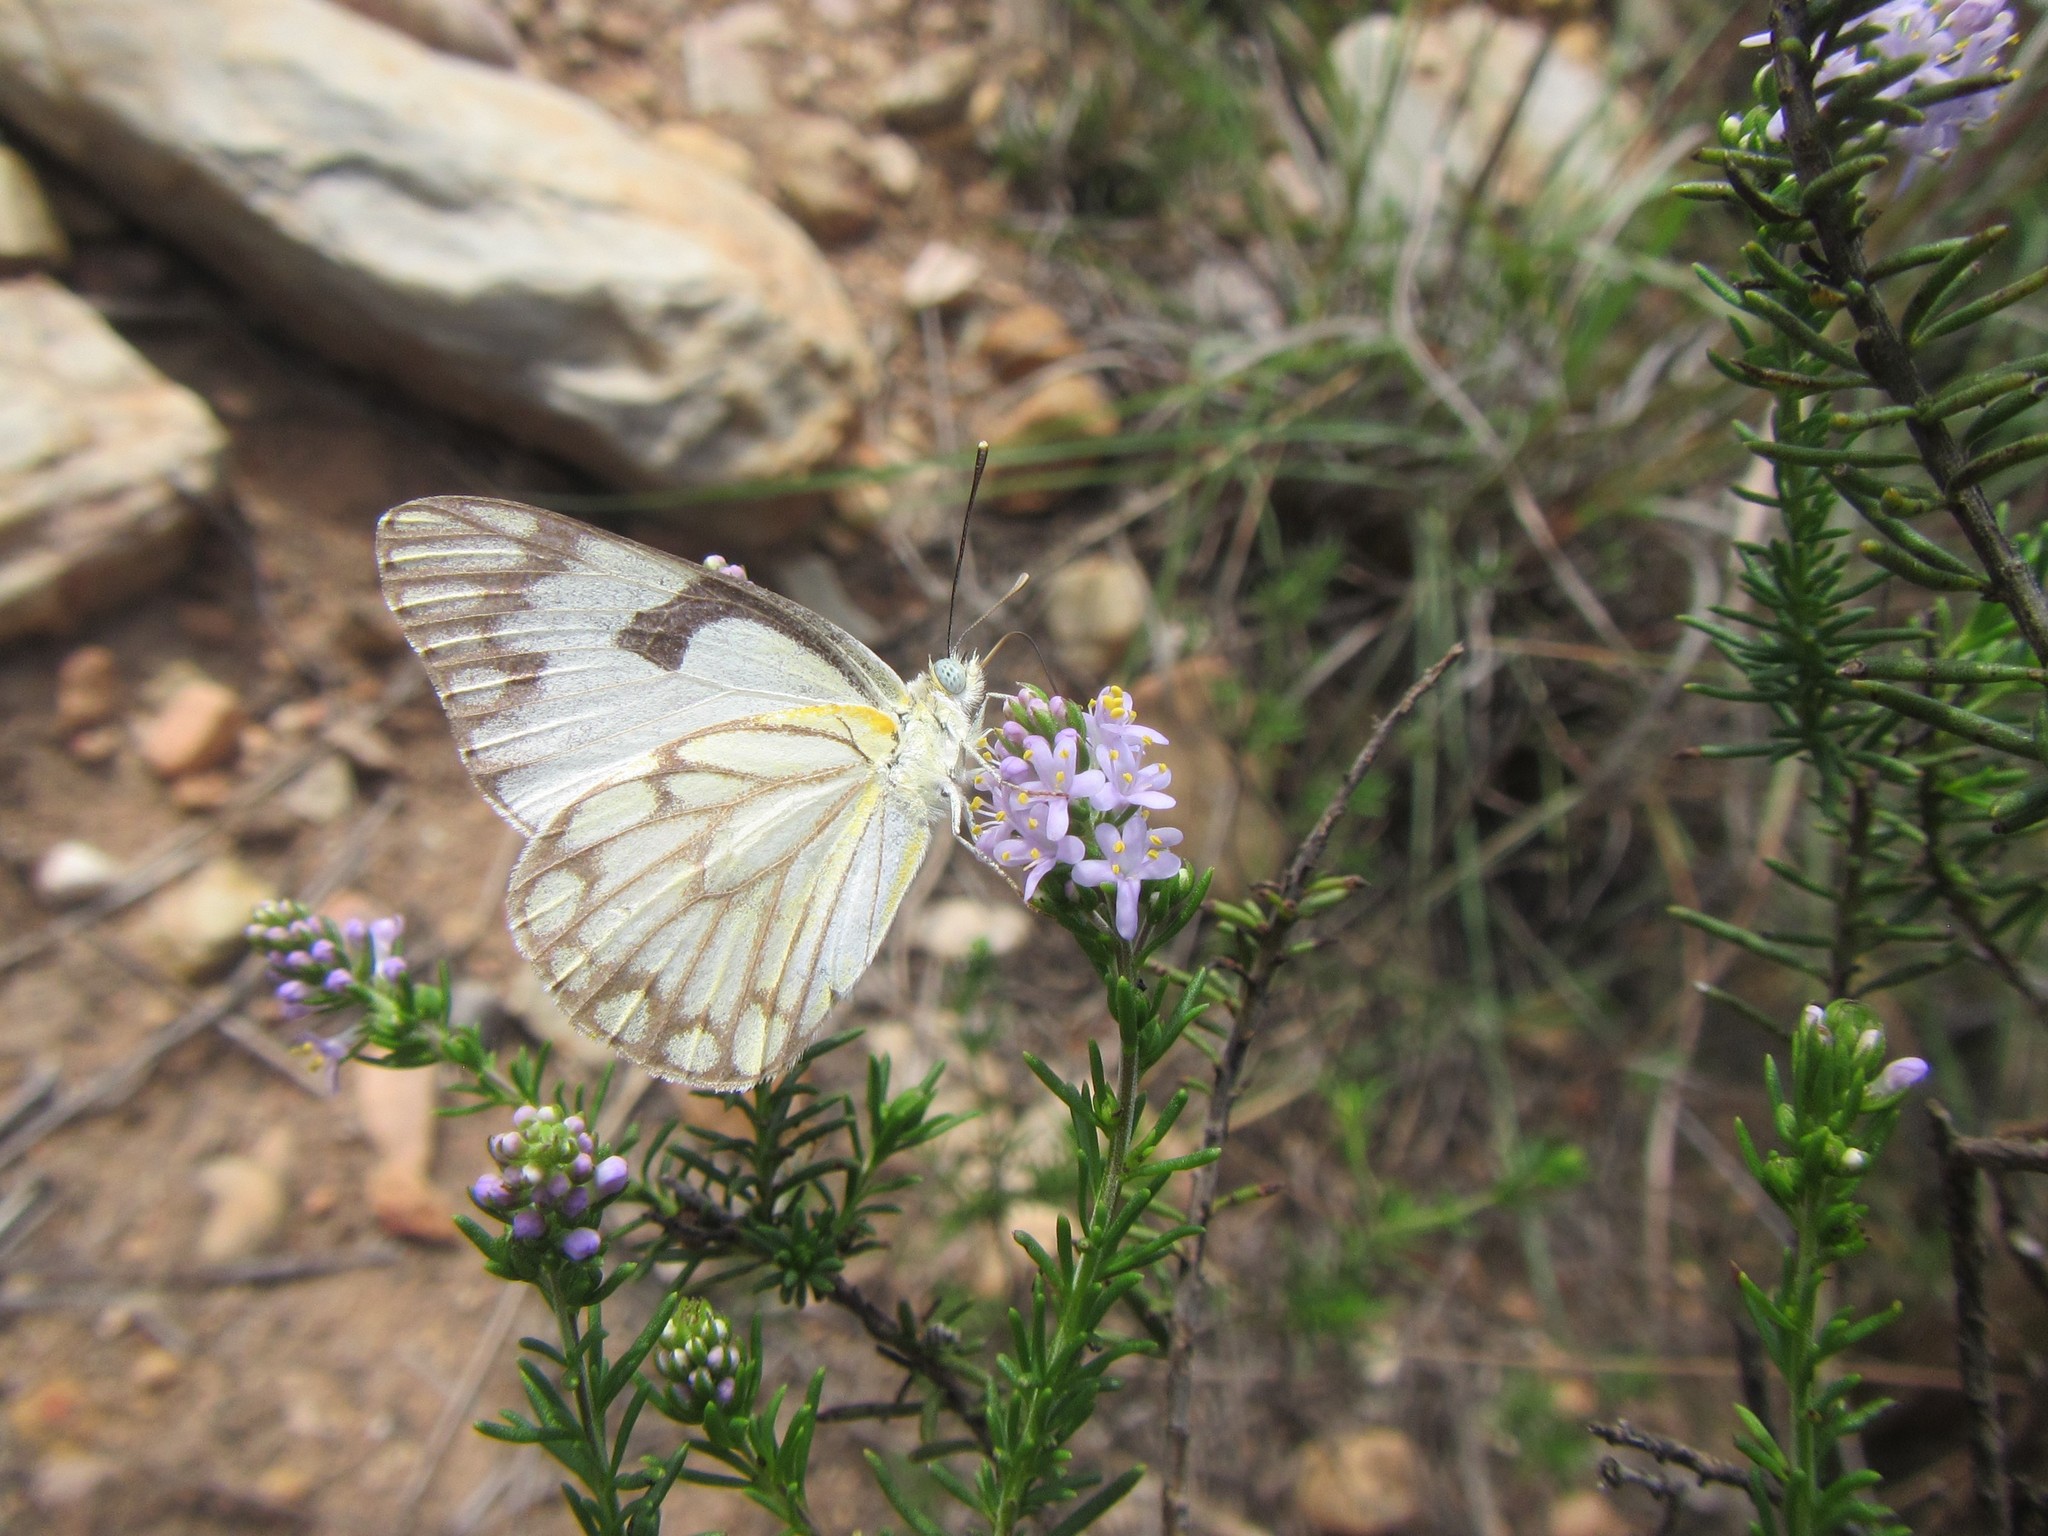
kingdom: Animalia
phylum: Arthropoda
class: Insecta
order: Lepidoptera
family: Pieridae
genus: Belenois
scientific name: Belenois aurota
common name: Brown-veined white
